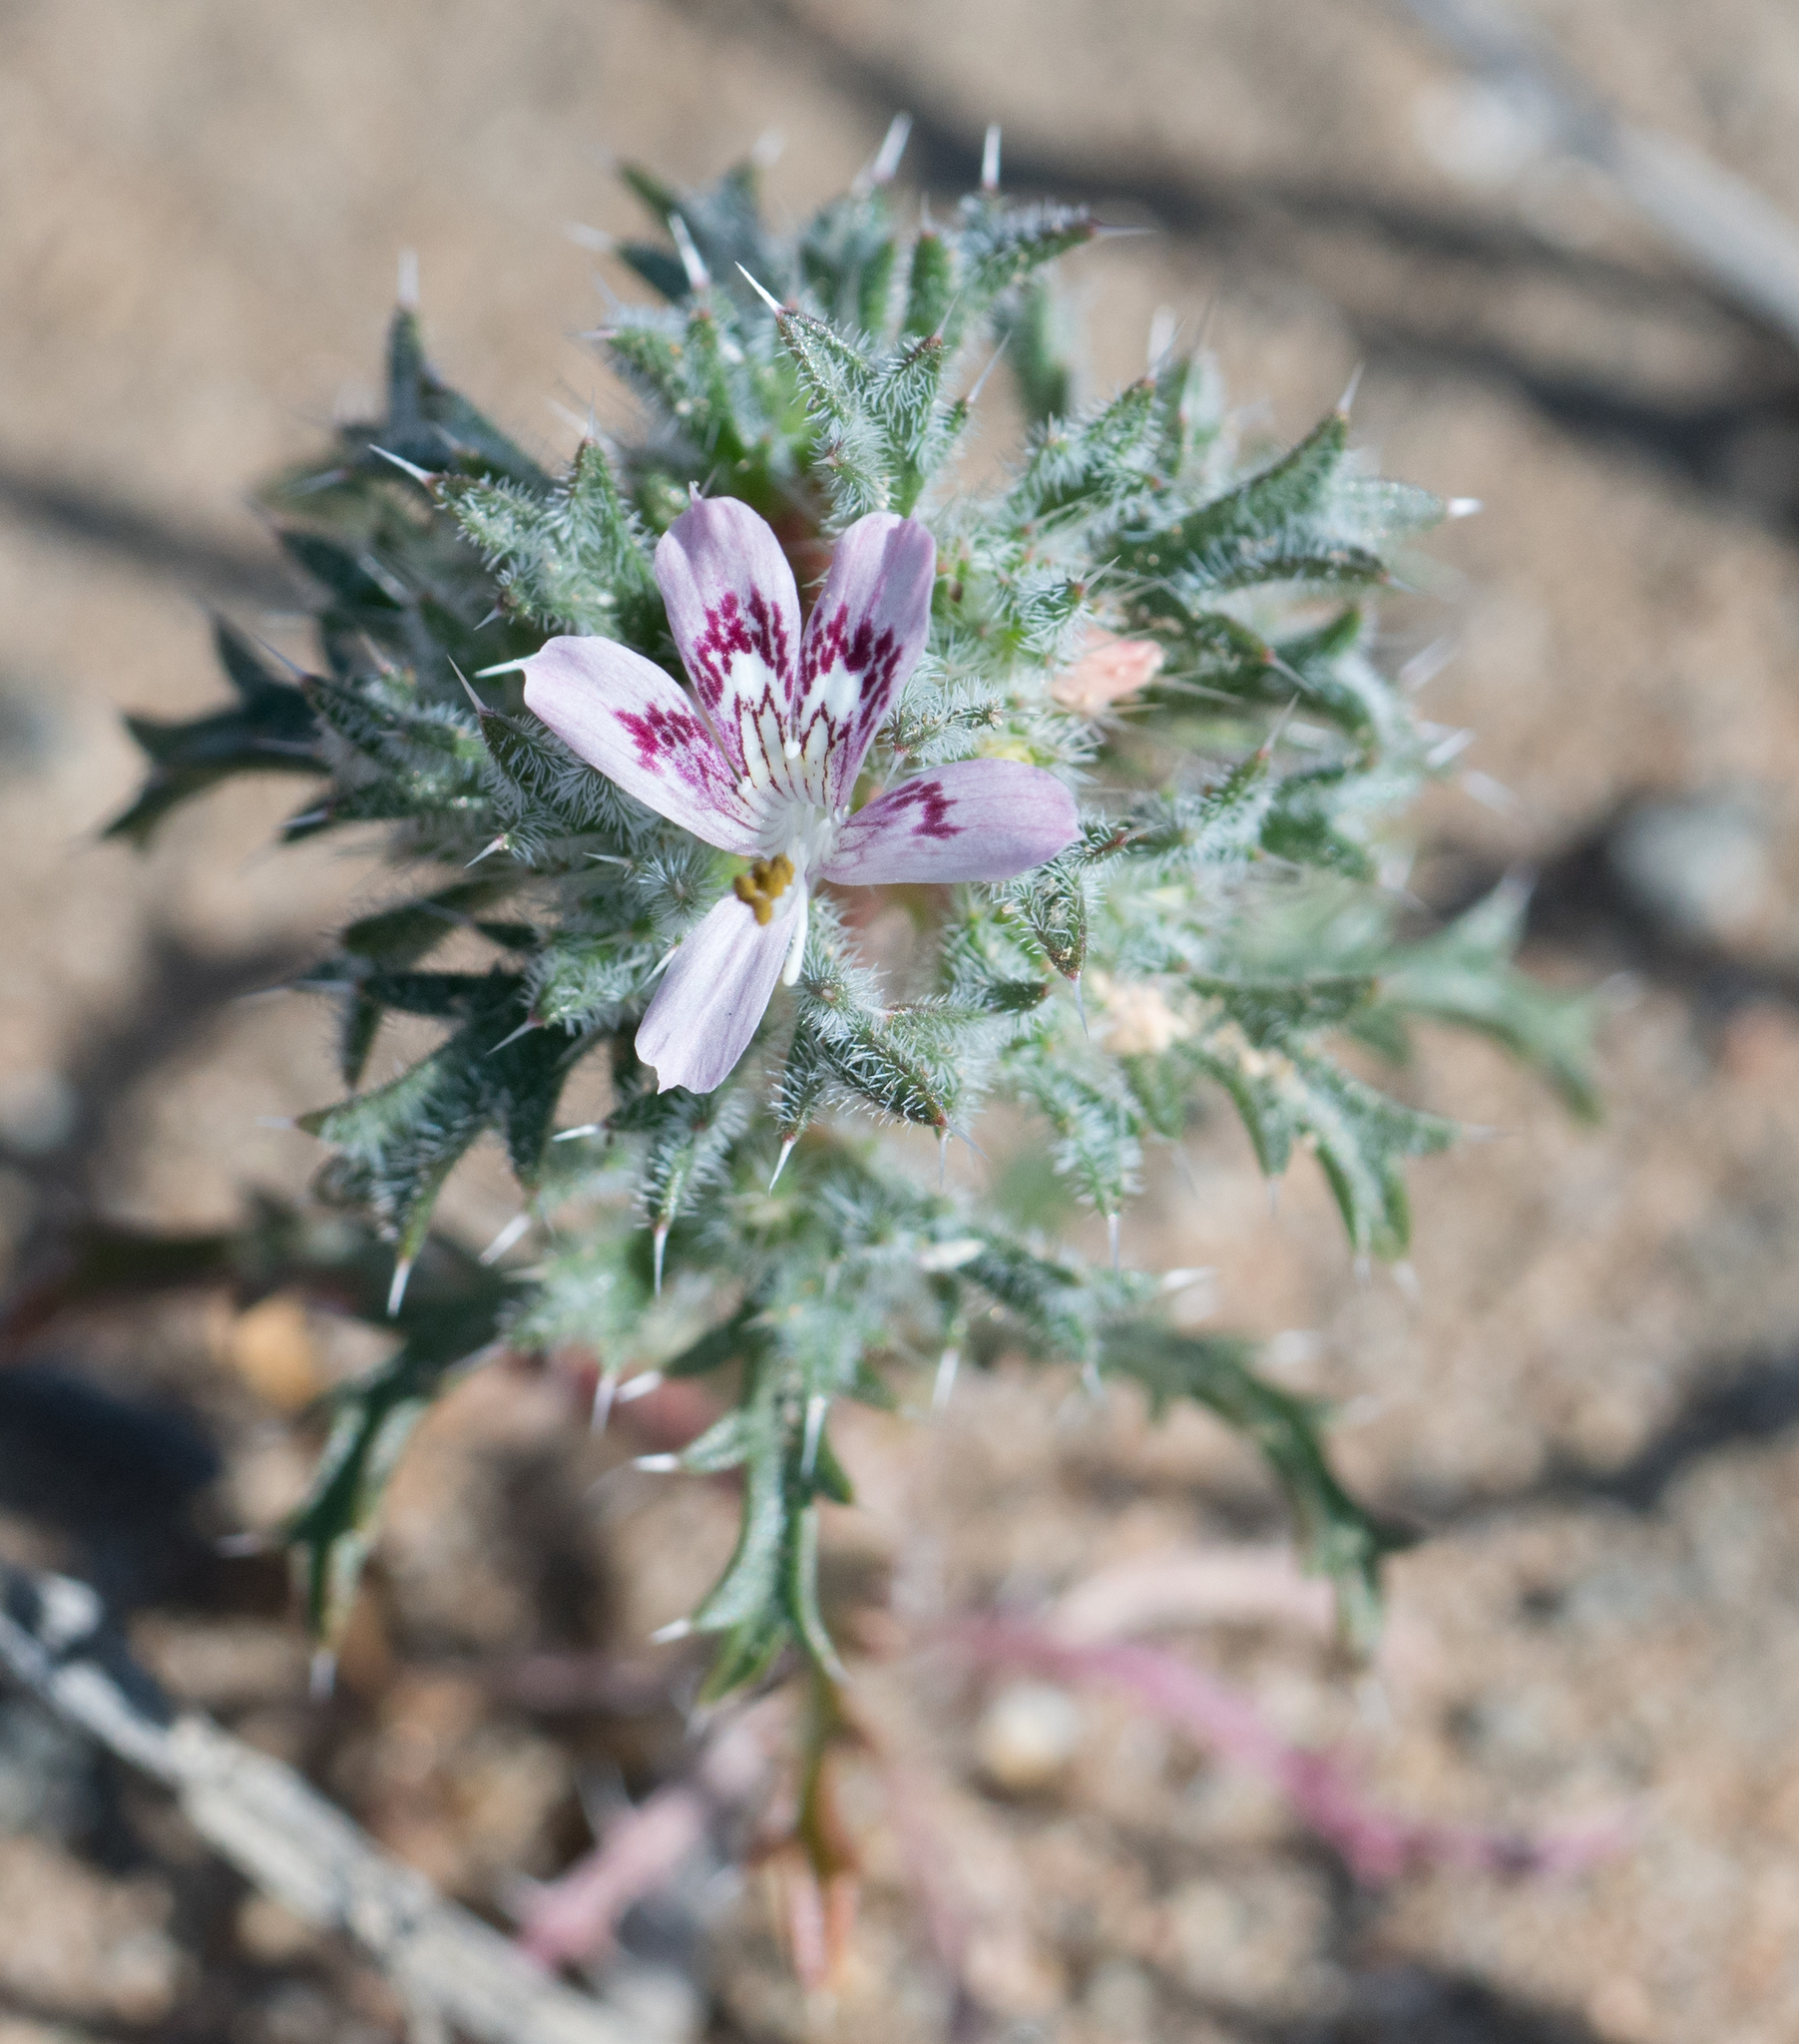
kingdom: Plantae
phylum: Tracheophyta
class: Magnoliopsida
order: Ericales
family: Polemoniaceae
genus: Loeseliastrum
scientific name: Loeseliastrum matthewsii
